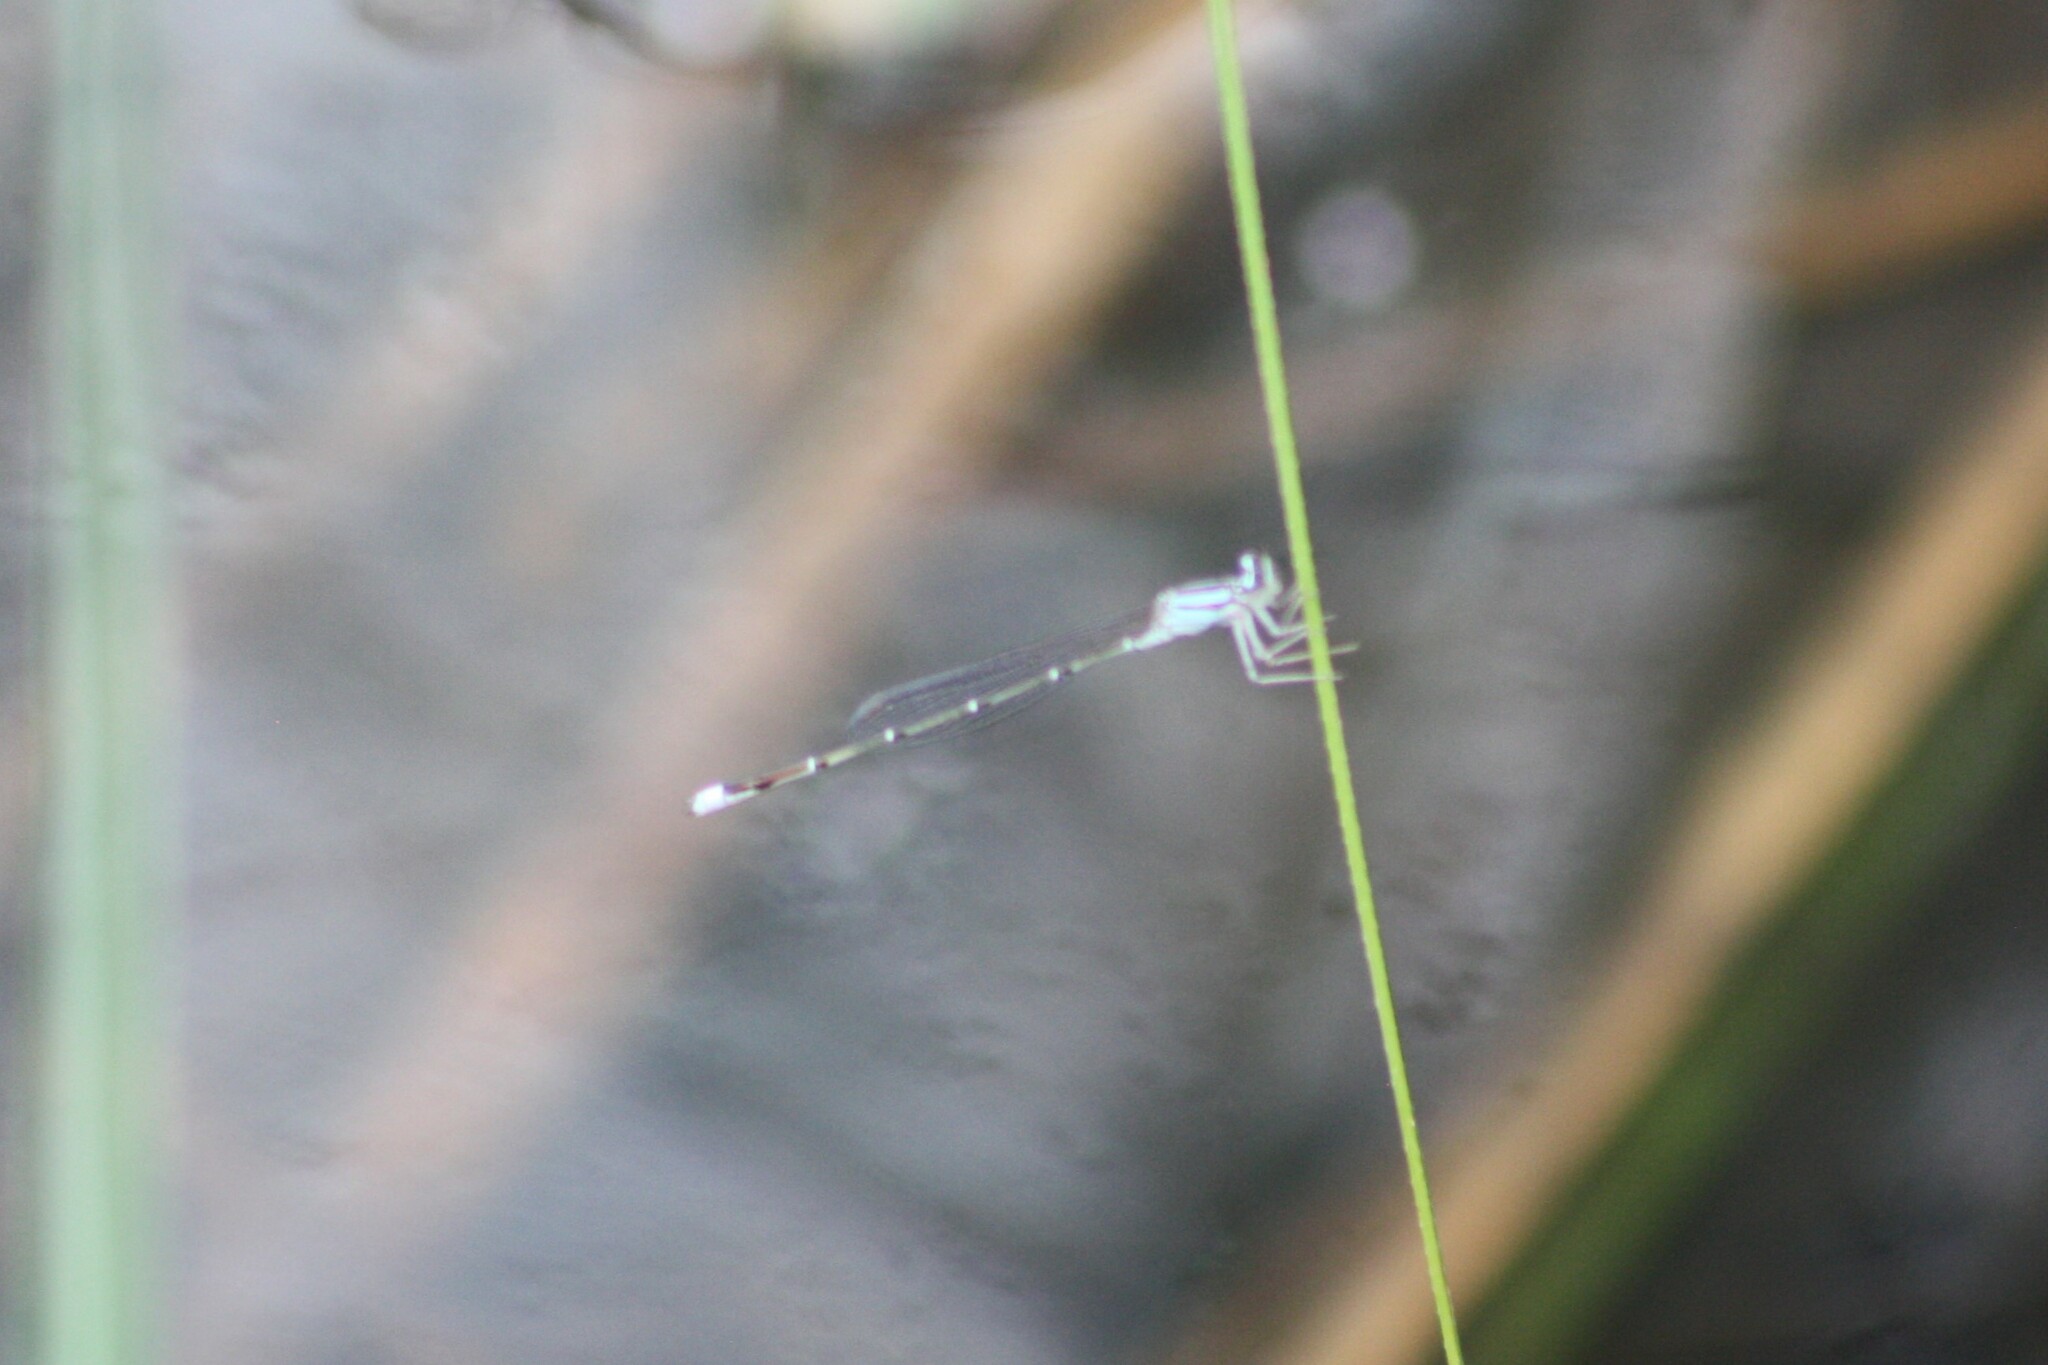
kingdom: Animalia
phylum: Arthropoda
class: Insecta
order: Odonata
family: Coenagrionidae
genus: Enallagma
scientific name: Enallagma exsulans
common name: Stream bluet
